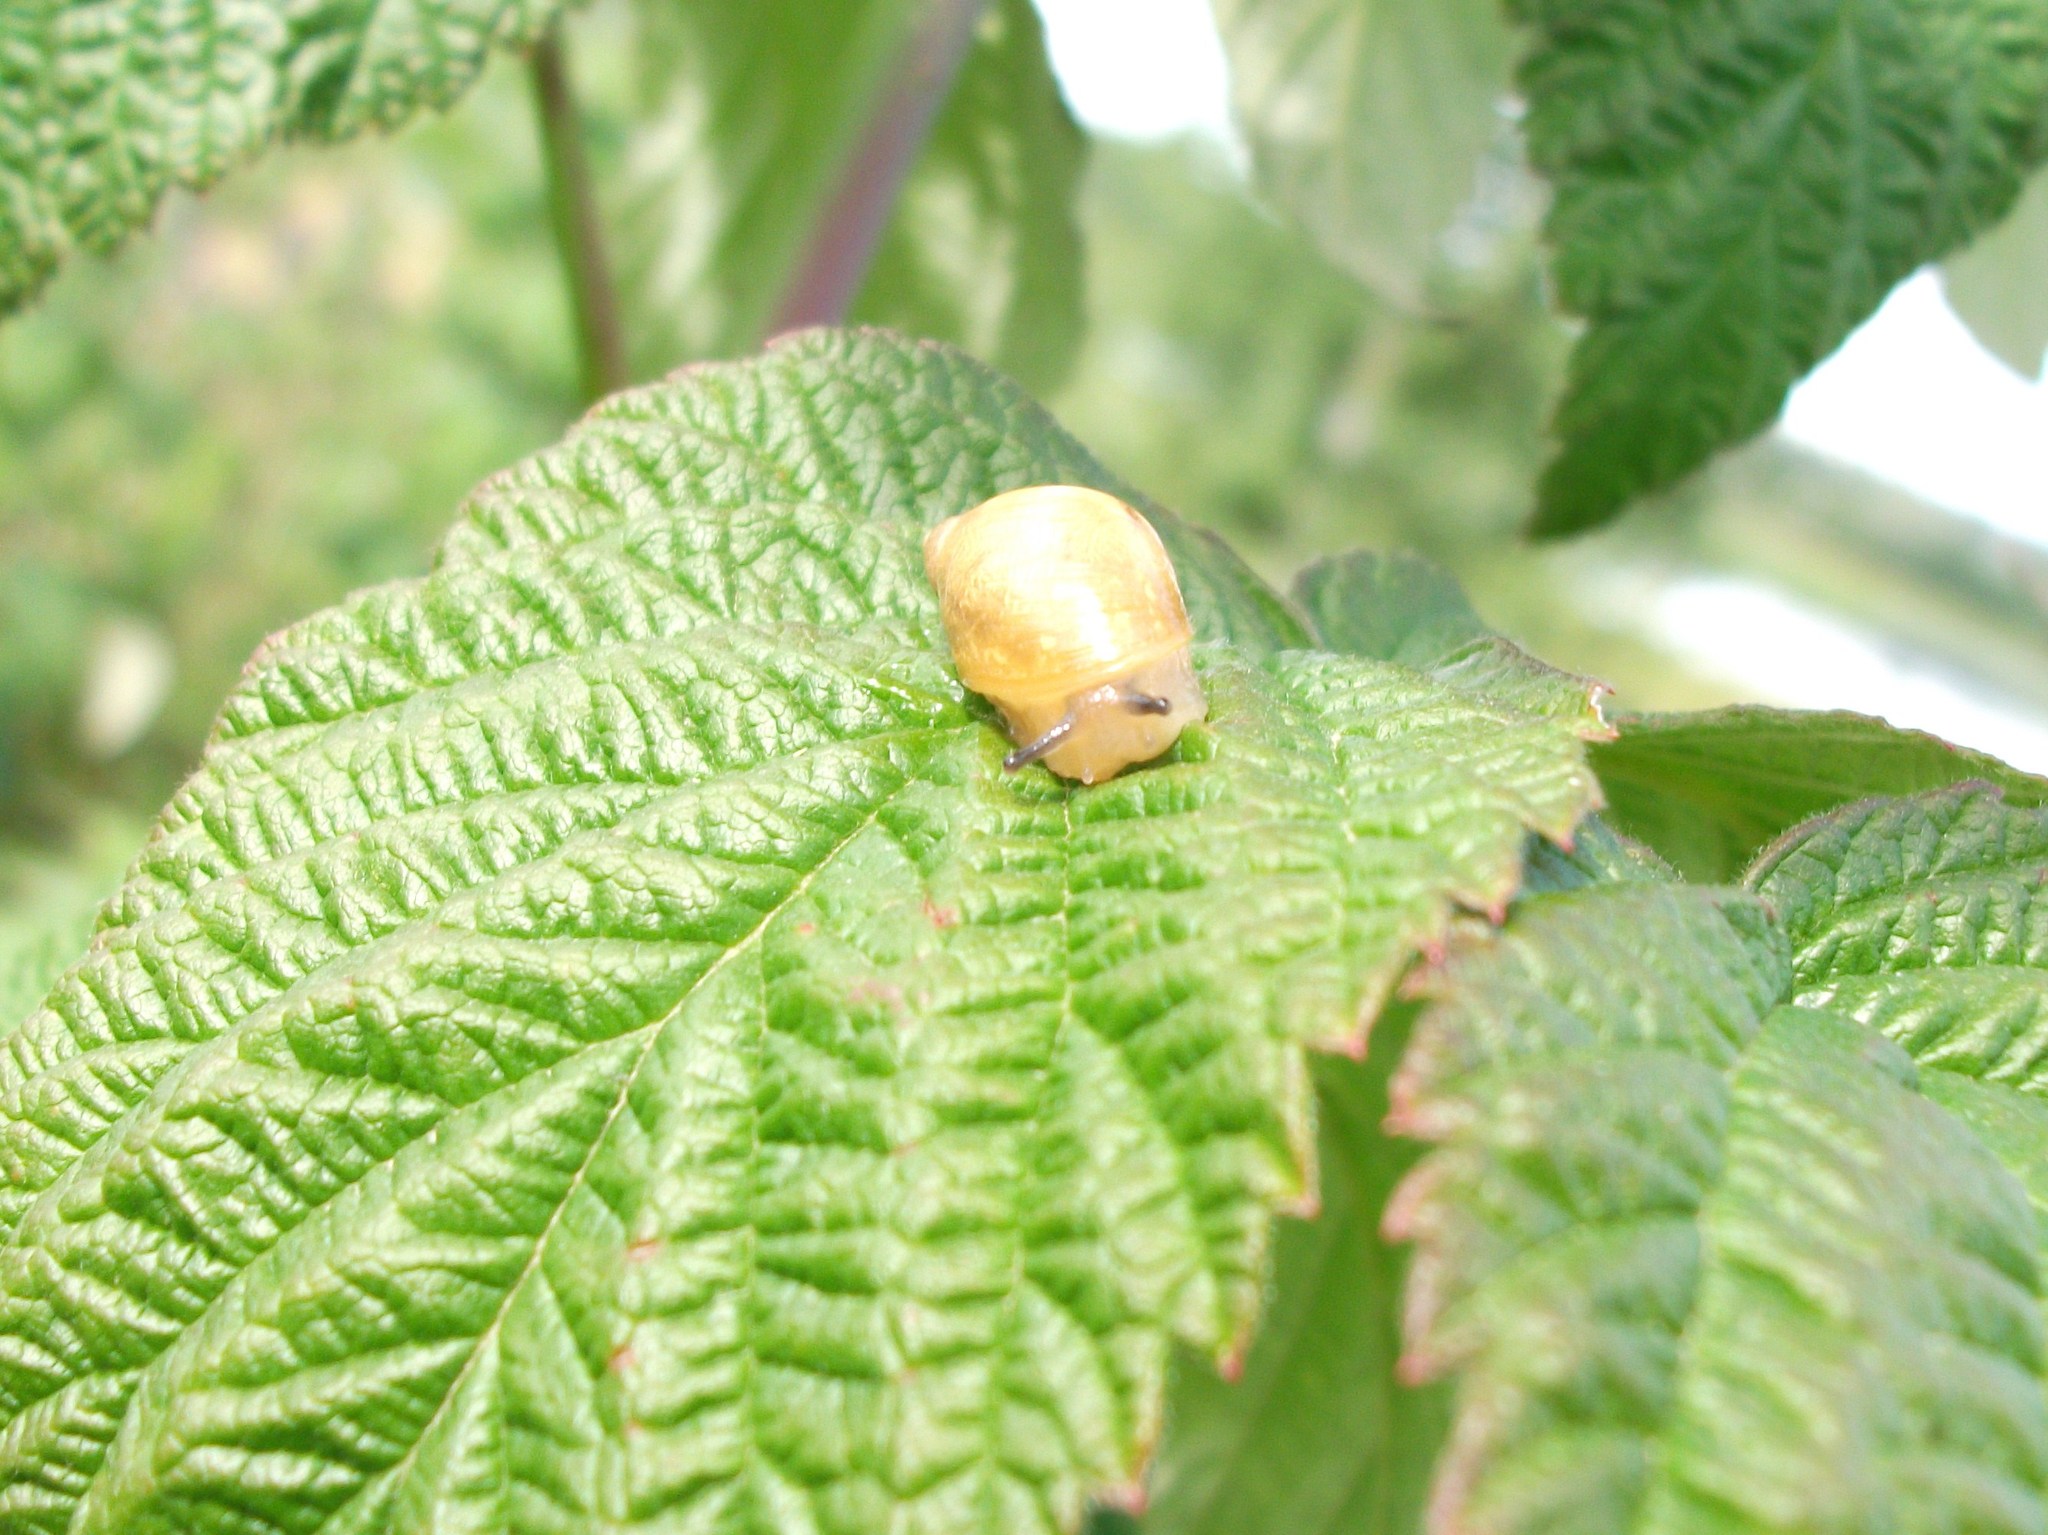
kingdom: Animalia
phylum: Mollusca
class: Gastropoda
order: Stylommatophora
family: Succineidae
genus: Succinea
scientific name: Succinea putris
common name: European ambersnail
